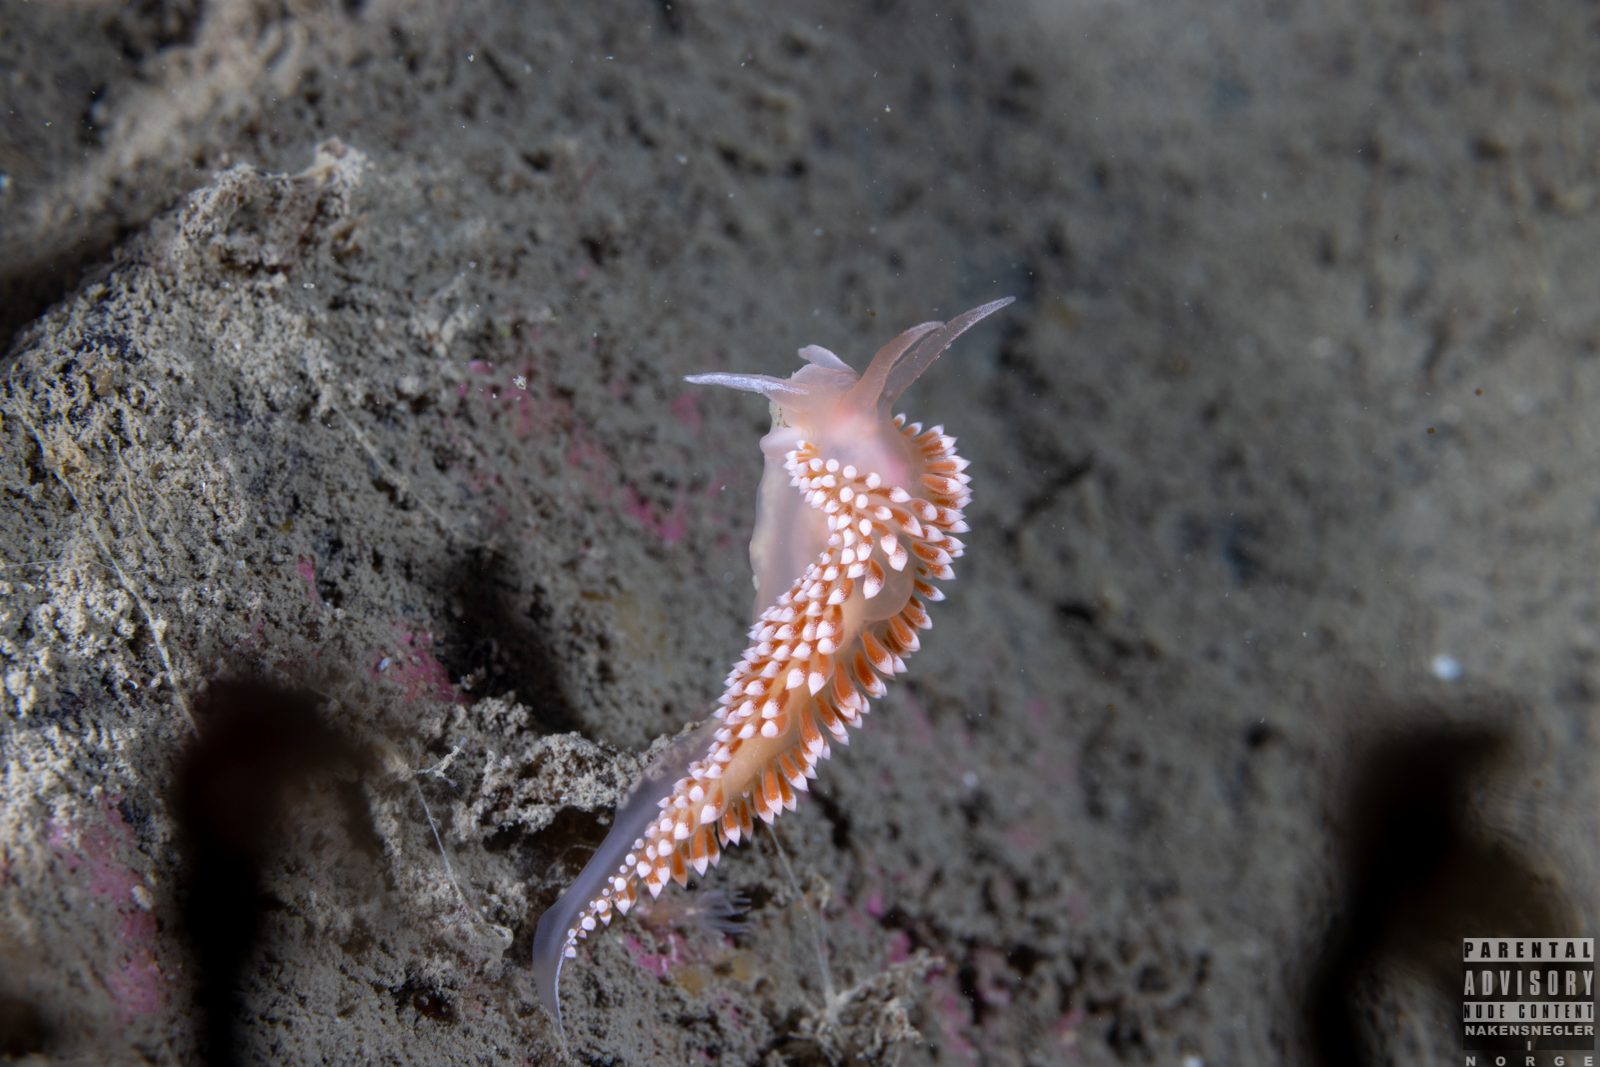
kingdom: Animalia
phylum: Mollusca
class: Gastropoda
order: Nudibranchia
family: Coryphellidae
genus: Coryphella
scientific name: Coryphella verrucosa
